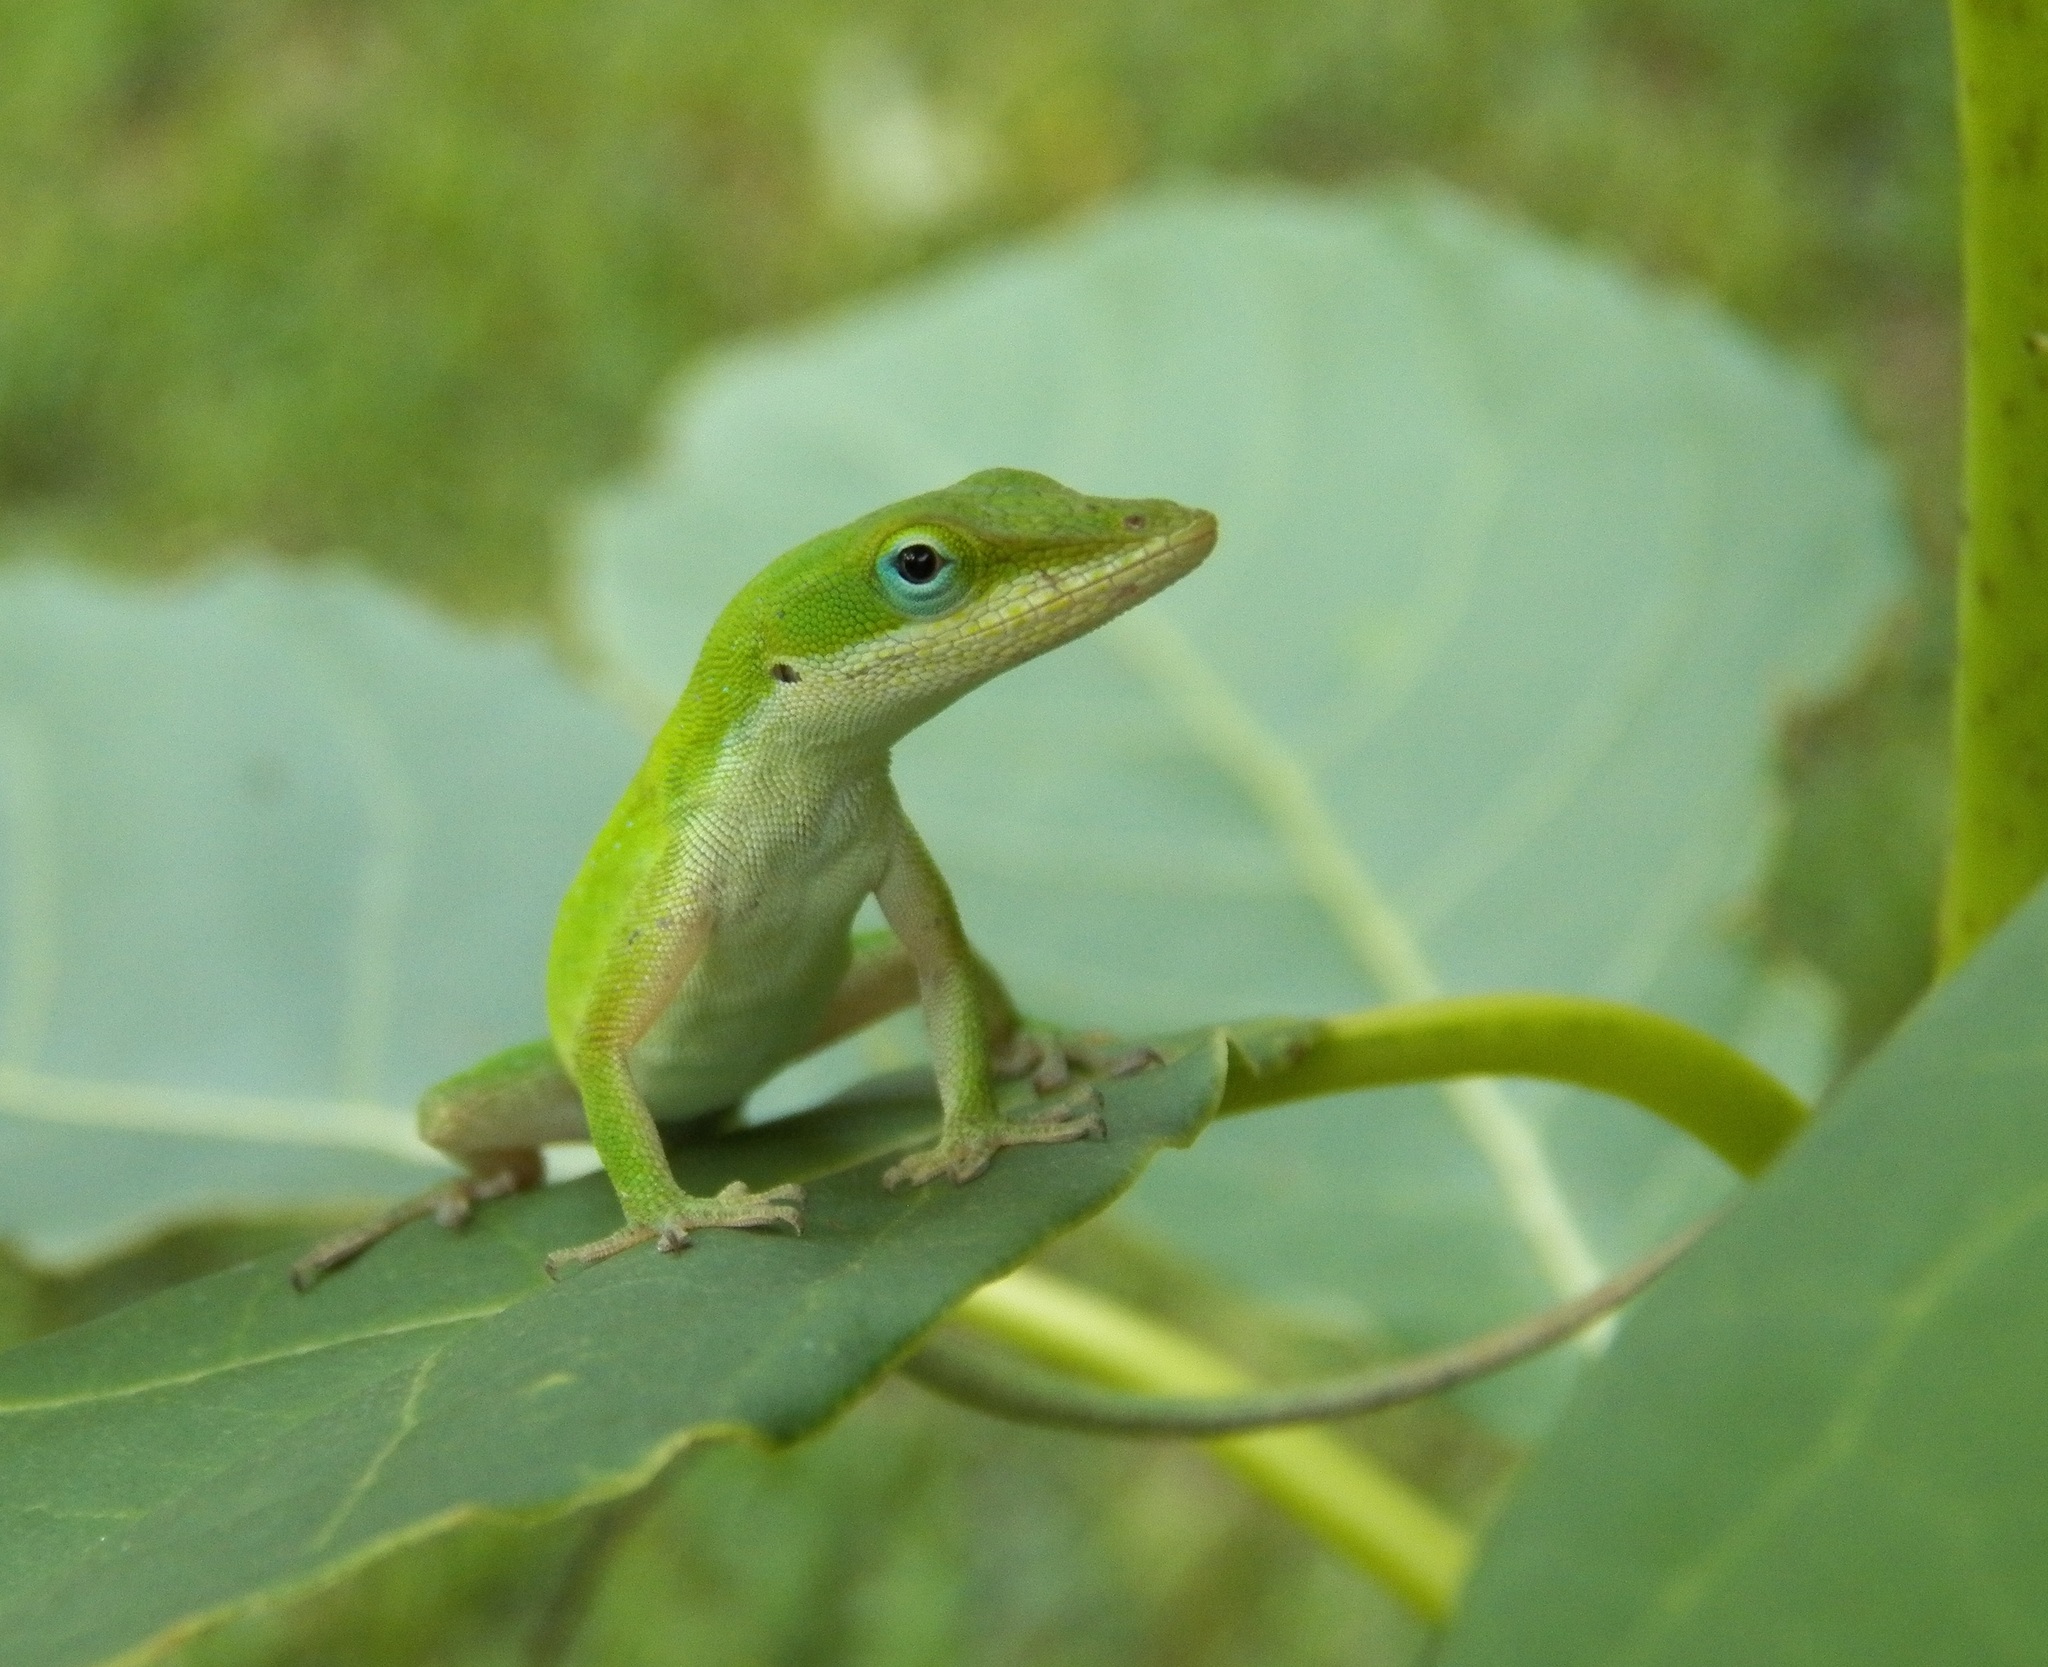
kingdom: Animalia
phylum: Chordata
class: Squamata
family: Dactyloidae
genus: Anolis
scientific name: Anolis carolinensis
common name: Green anole
